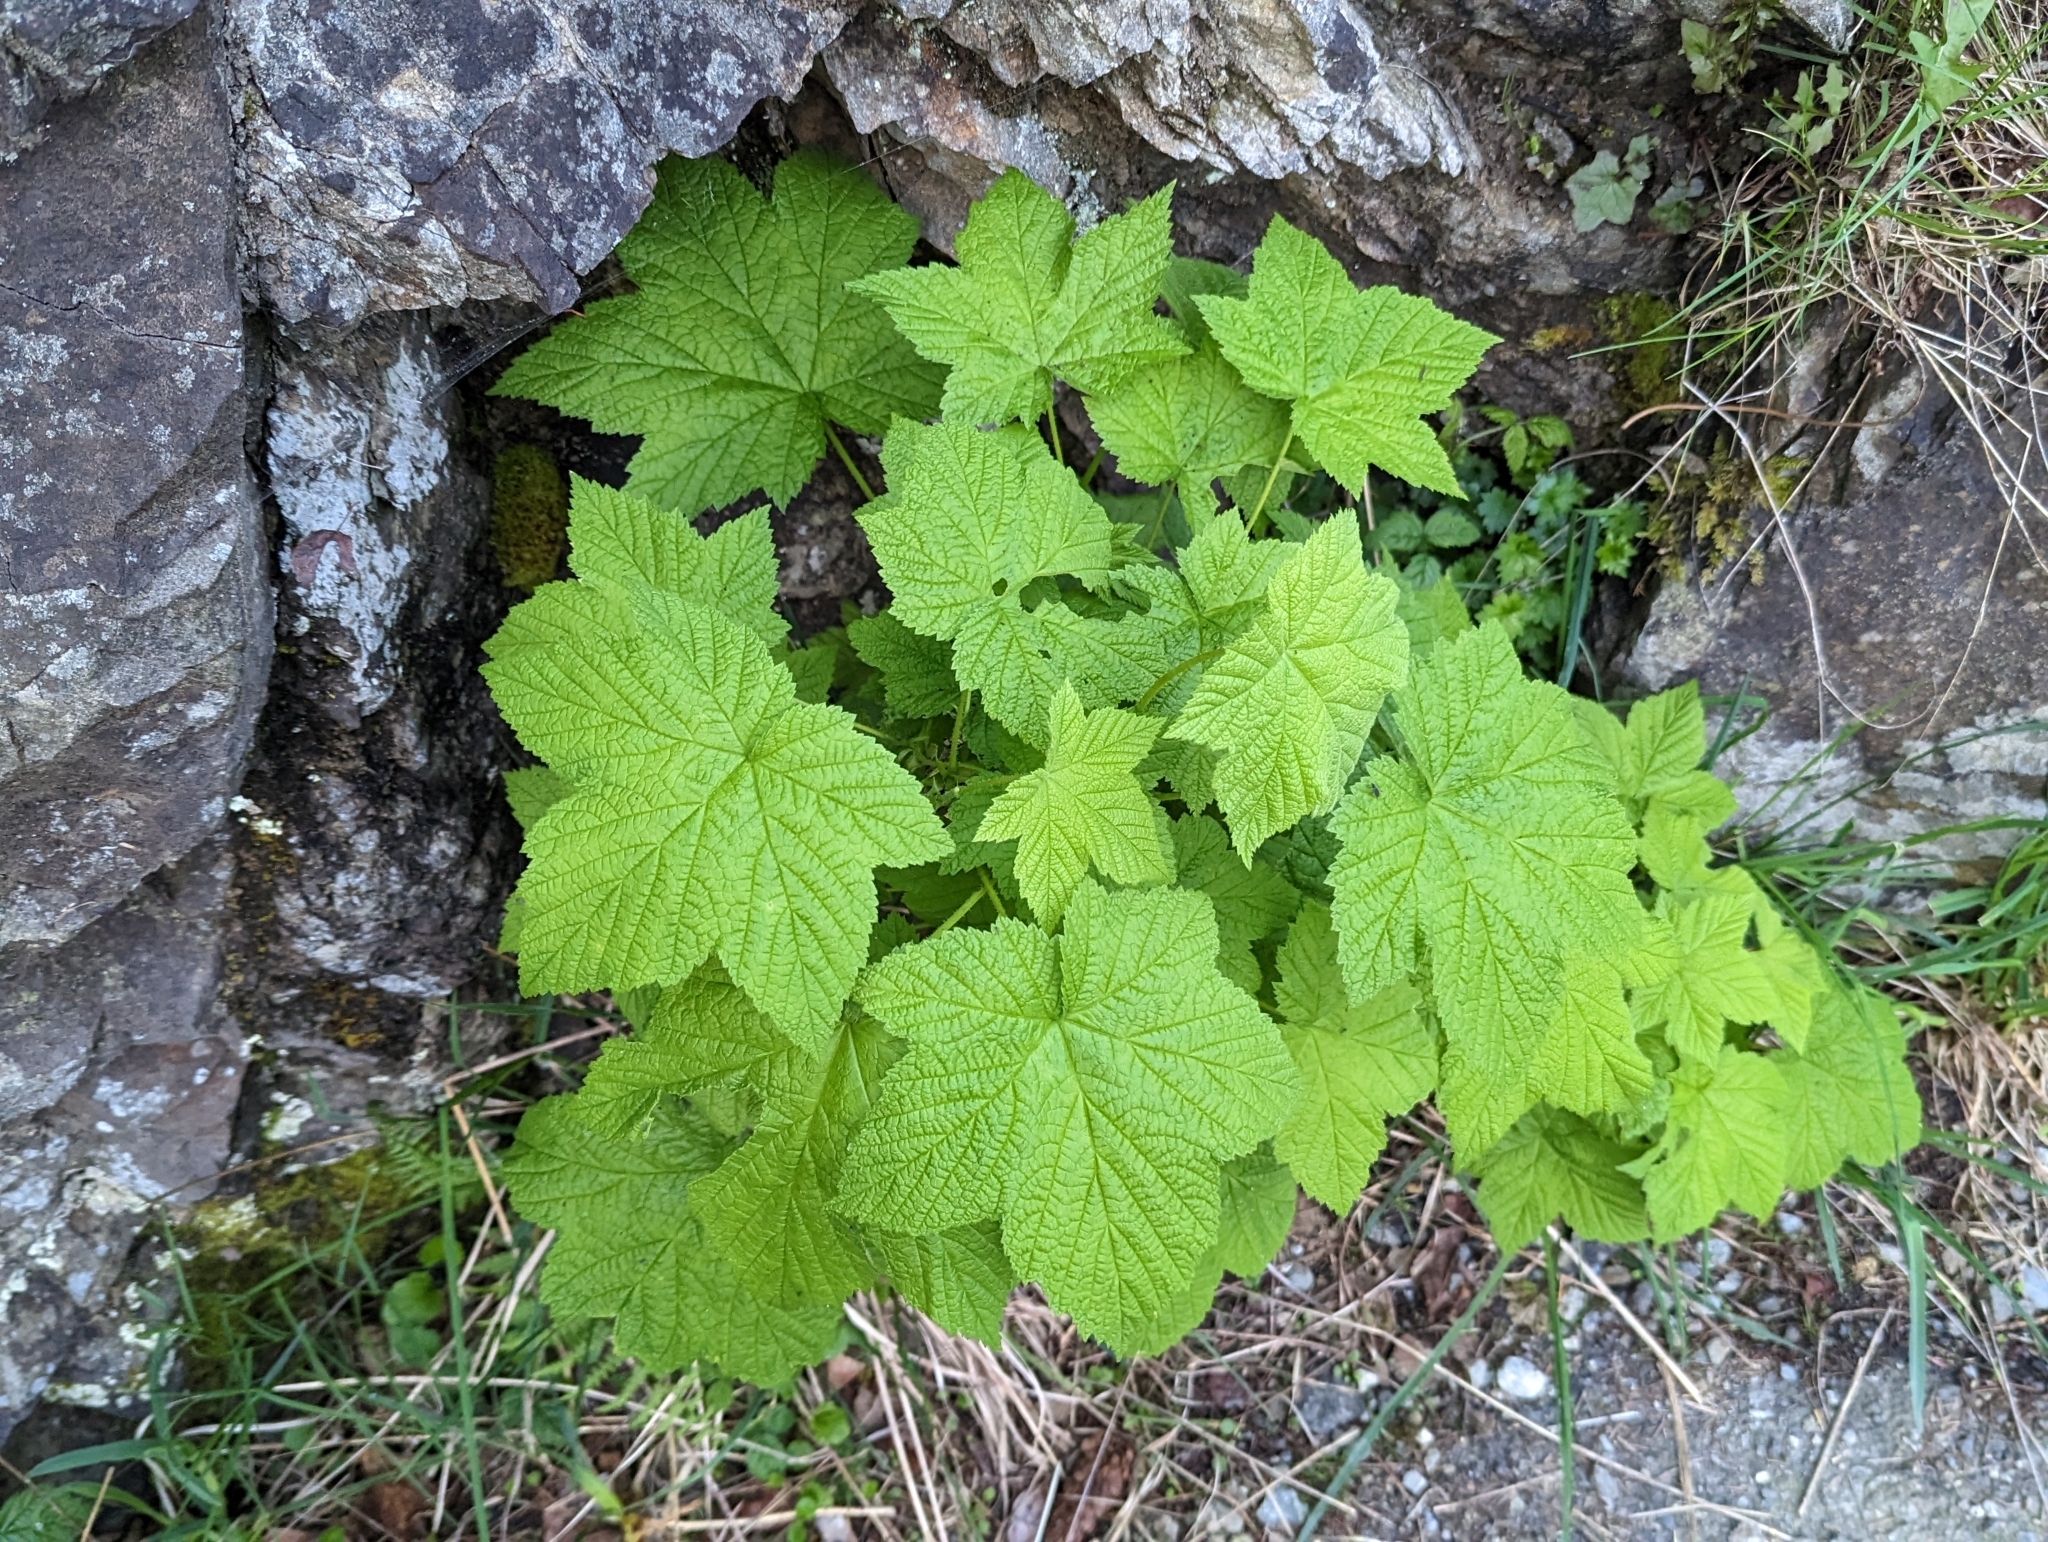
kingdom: Plantae
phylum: Tracheophyta
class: Magnoliopsida
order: Rosales
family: Rosaceae
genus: Rubus
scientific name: Rubus parviflorus
